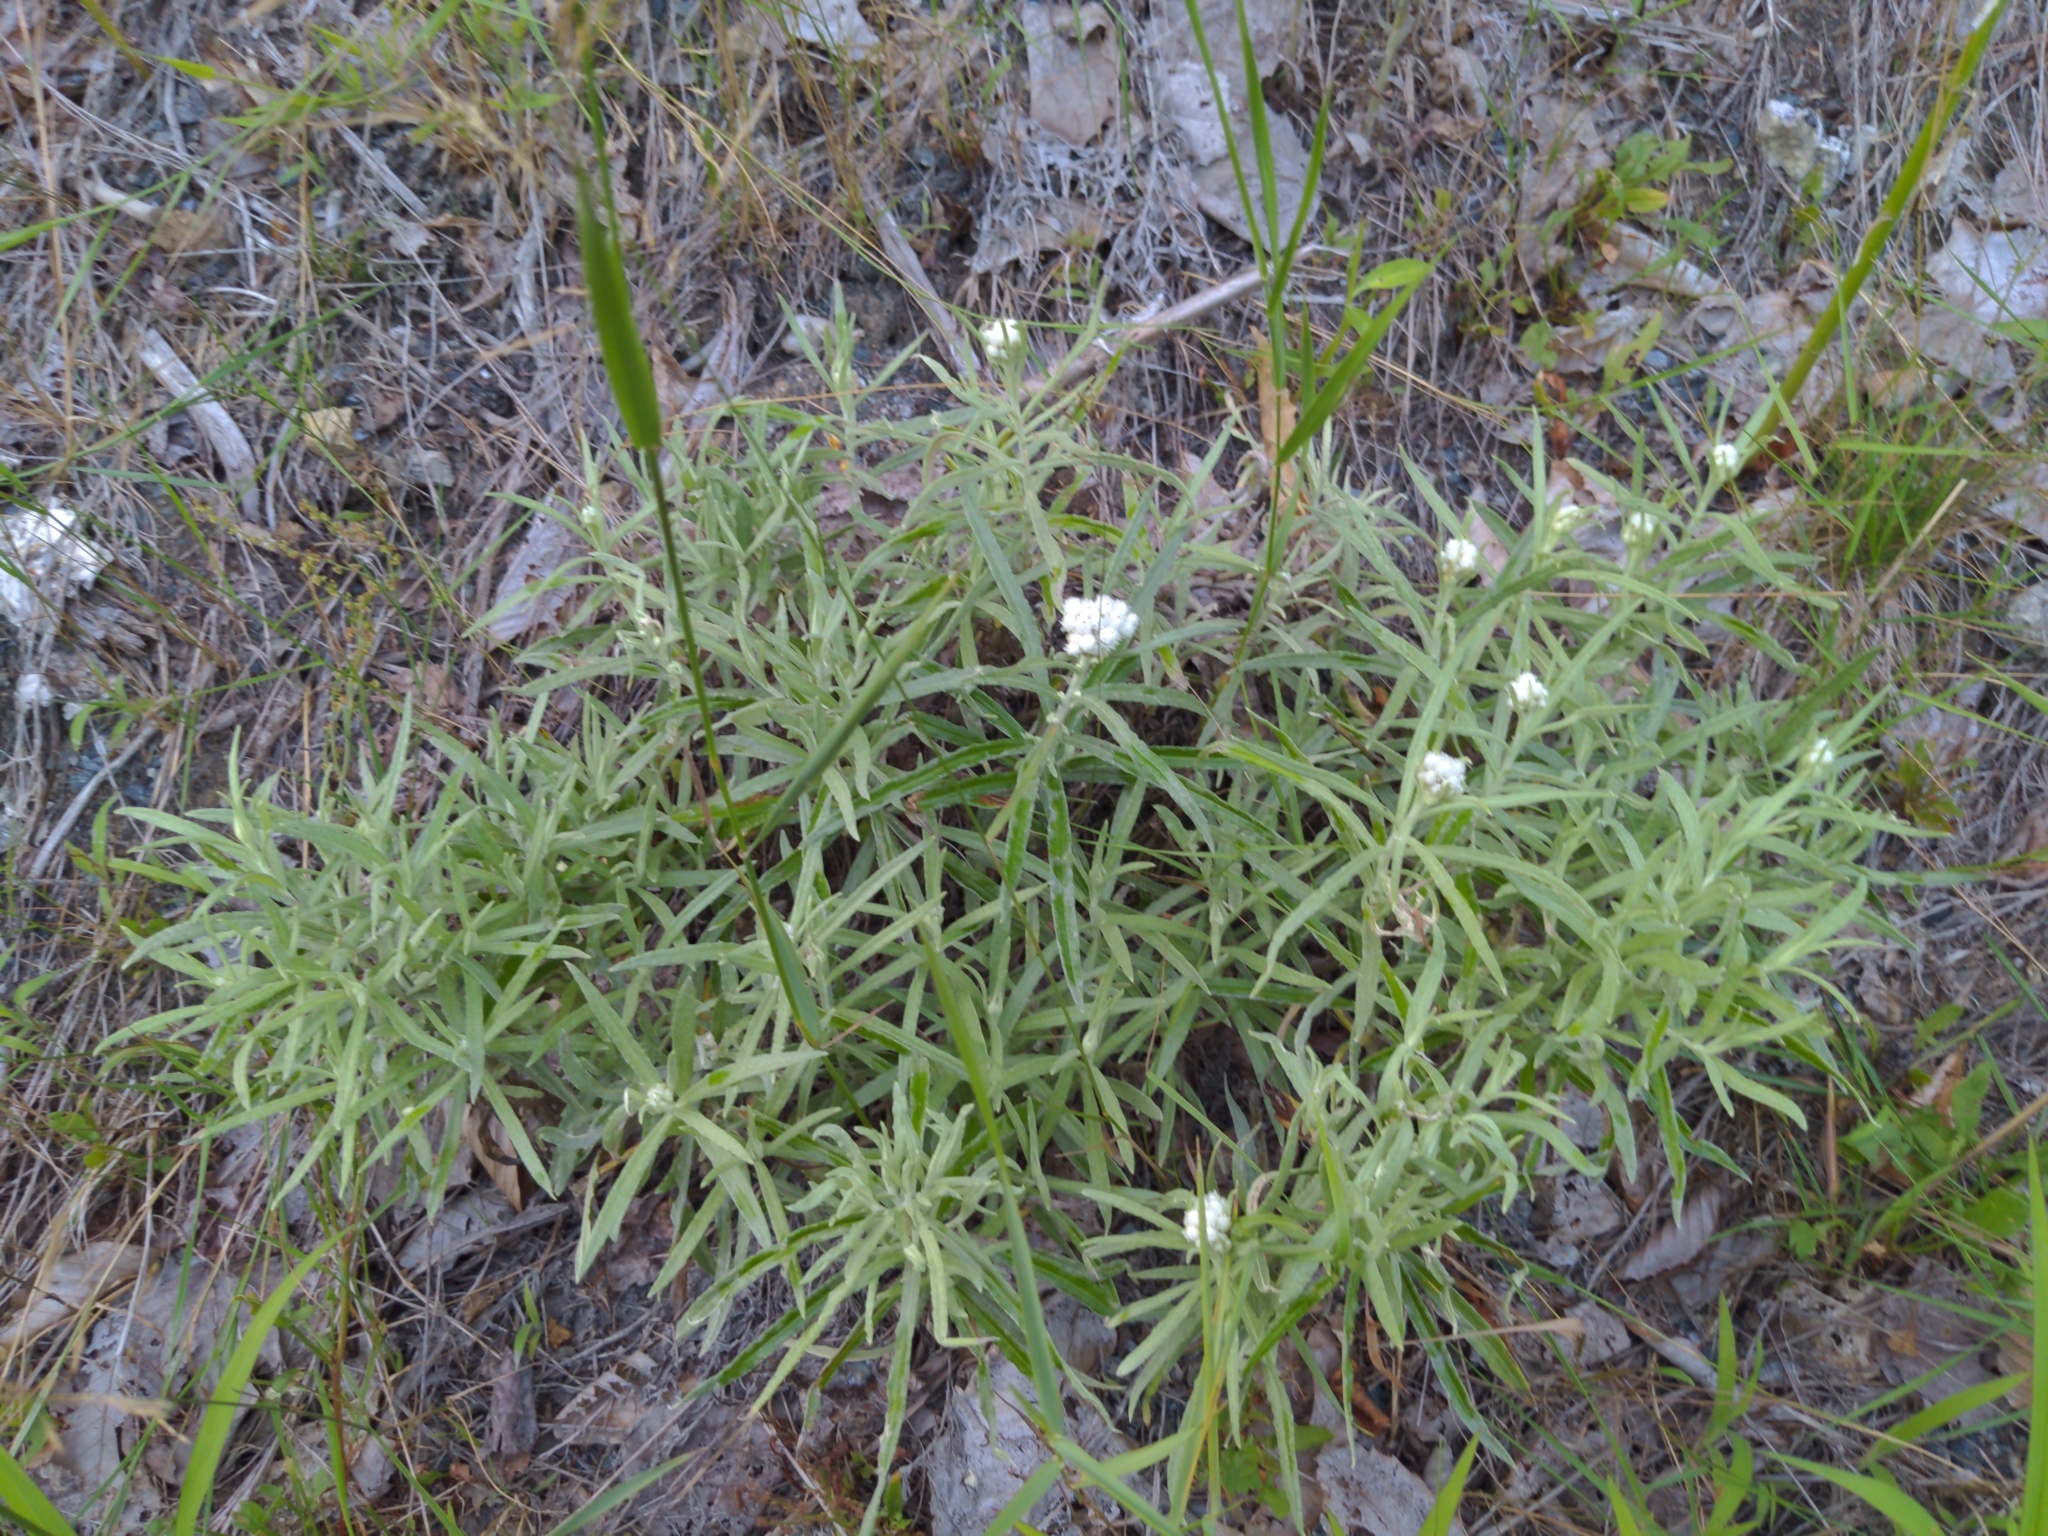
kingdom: Plantae
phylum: Tracheophyta
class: Magnoliopsida
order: Asterales
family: Asteraceae
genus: Anaphalis
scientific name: Anaphalis margaritacea
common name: Pearly everlasting
